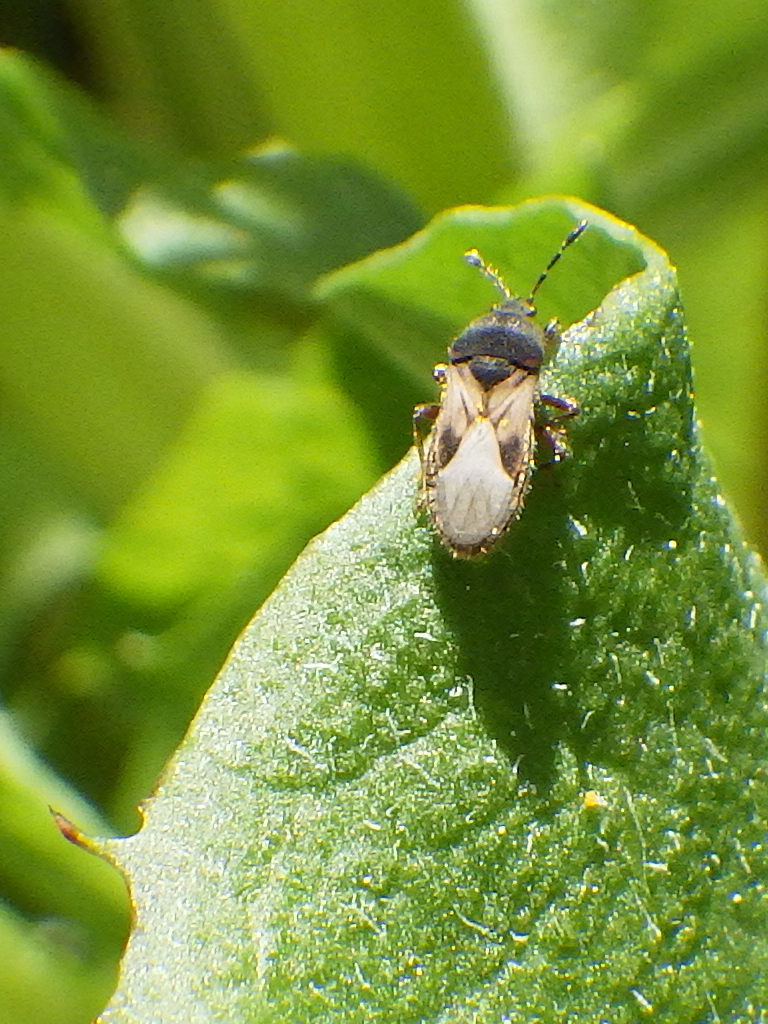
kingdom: Animalia
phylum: Arthropoda
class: Insecta
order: Hemiptera
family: Blissidae
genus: Blissus
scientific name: Blissus leucopterus
